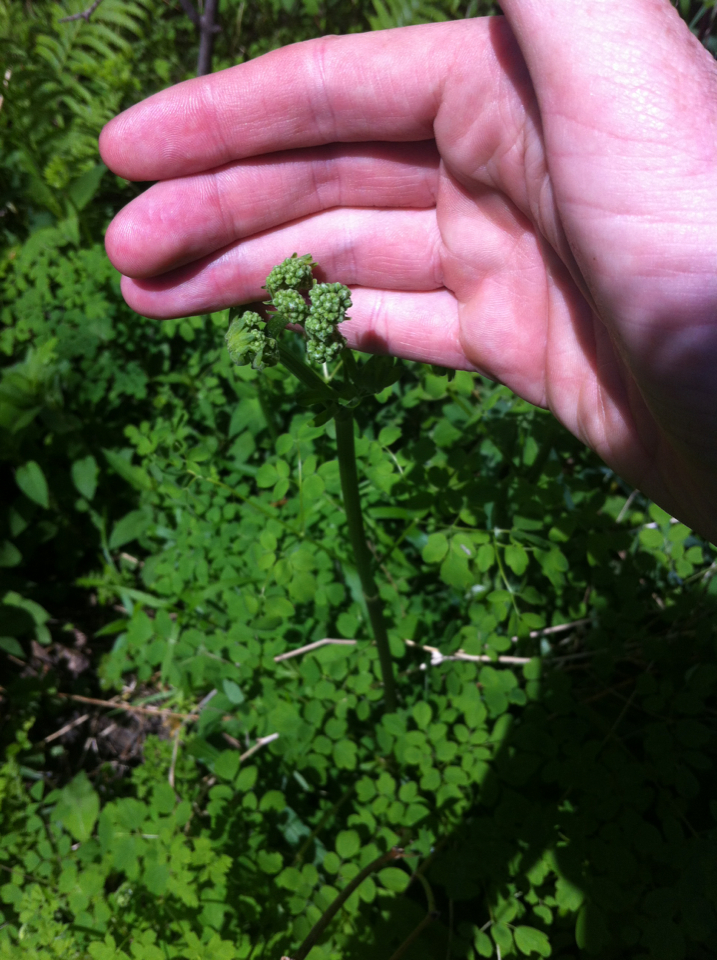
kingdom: Plantae
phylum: Tracheophyta
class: Magnoliopsida
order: Ranunculales
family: Ranunculaceae
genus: Thalictrum
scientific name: Thalictrum pubescens
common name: King-of-the-meadow
